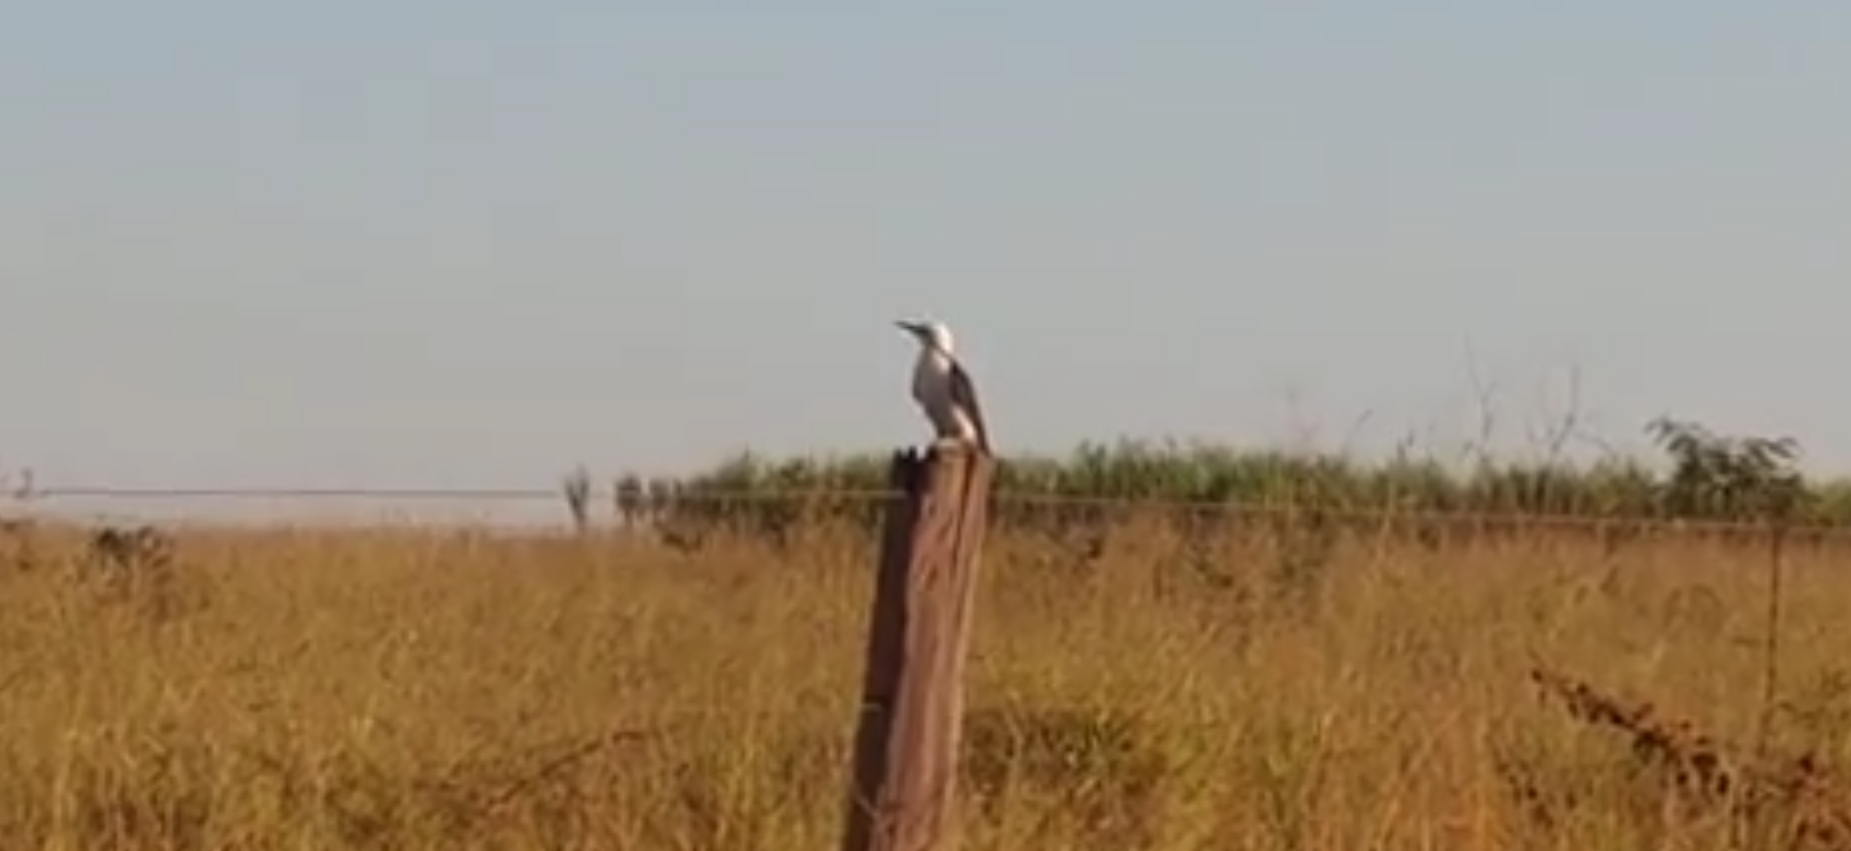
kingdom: Animalia
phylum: Chordata
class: Aves
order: Piciformes
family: Picidae
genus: Melanerpes
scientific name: Melanerpes candidus
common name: White woodpecker
